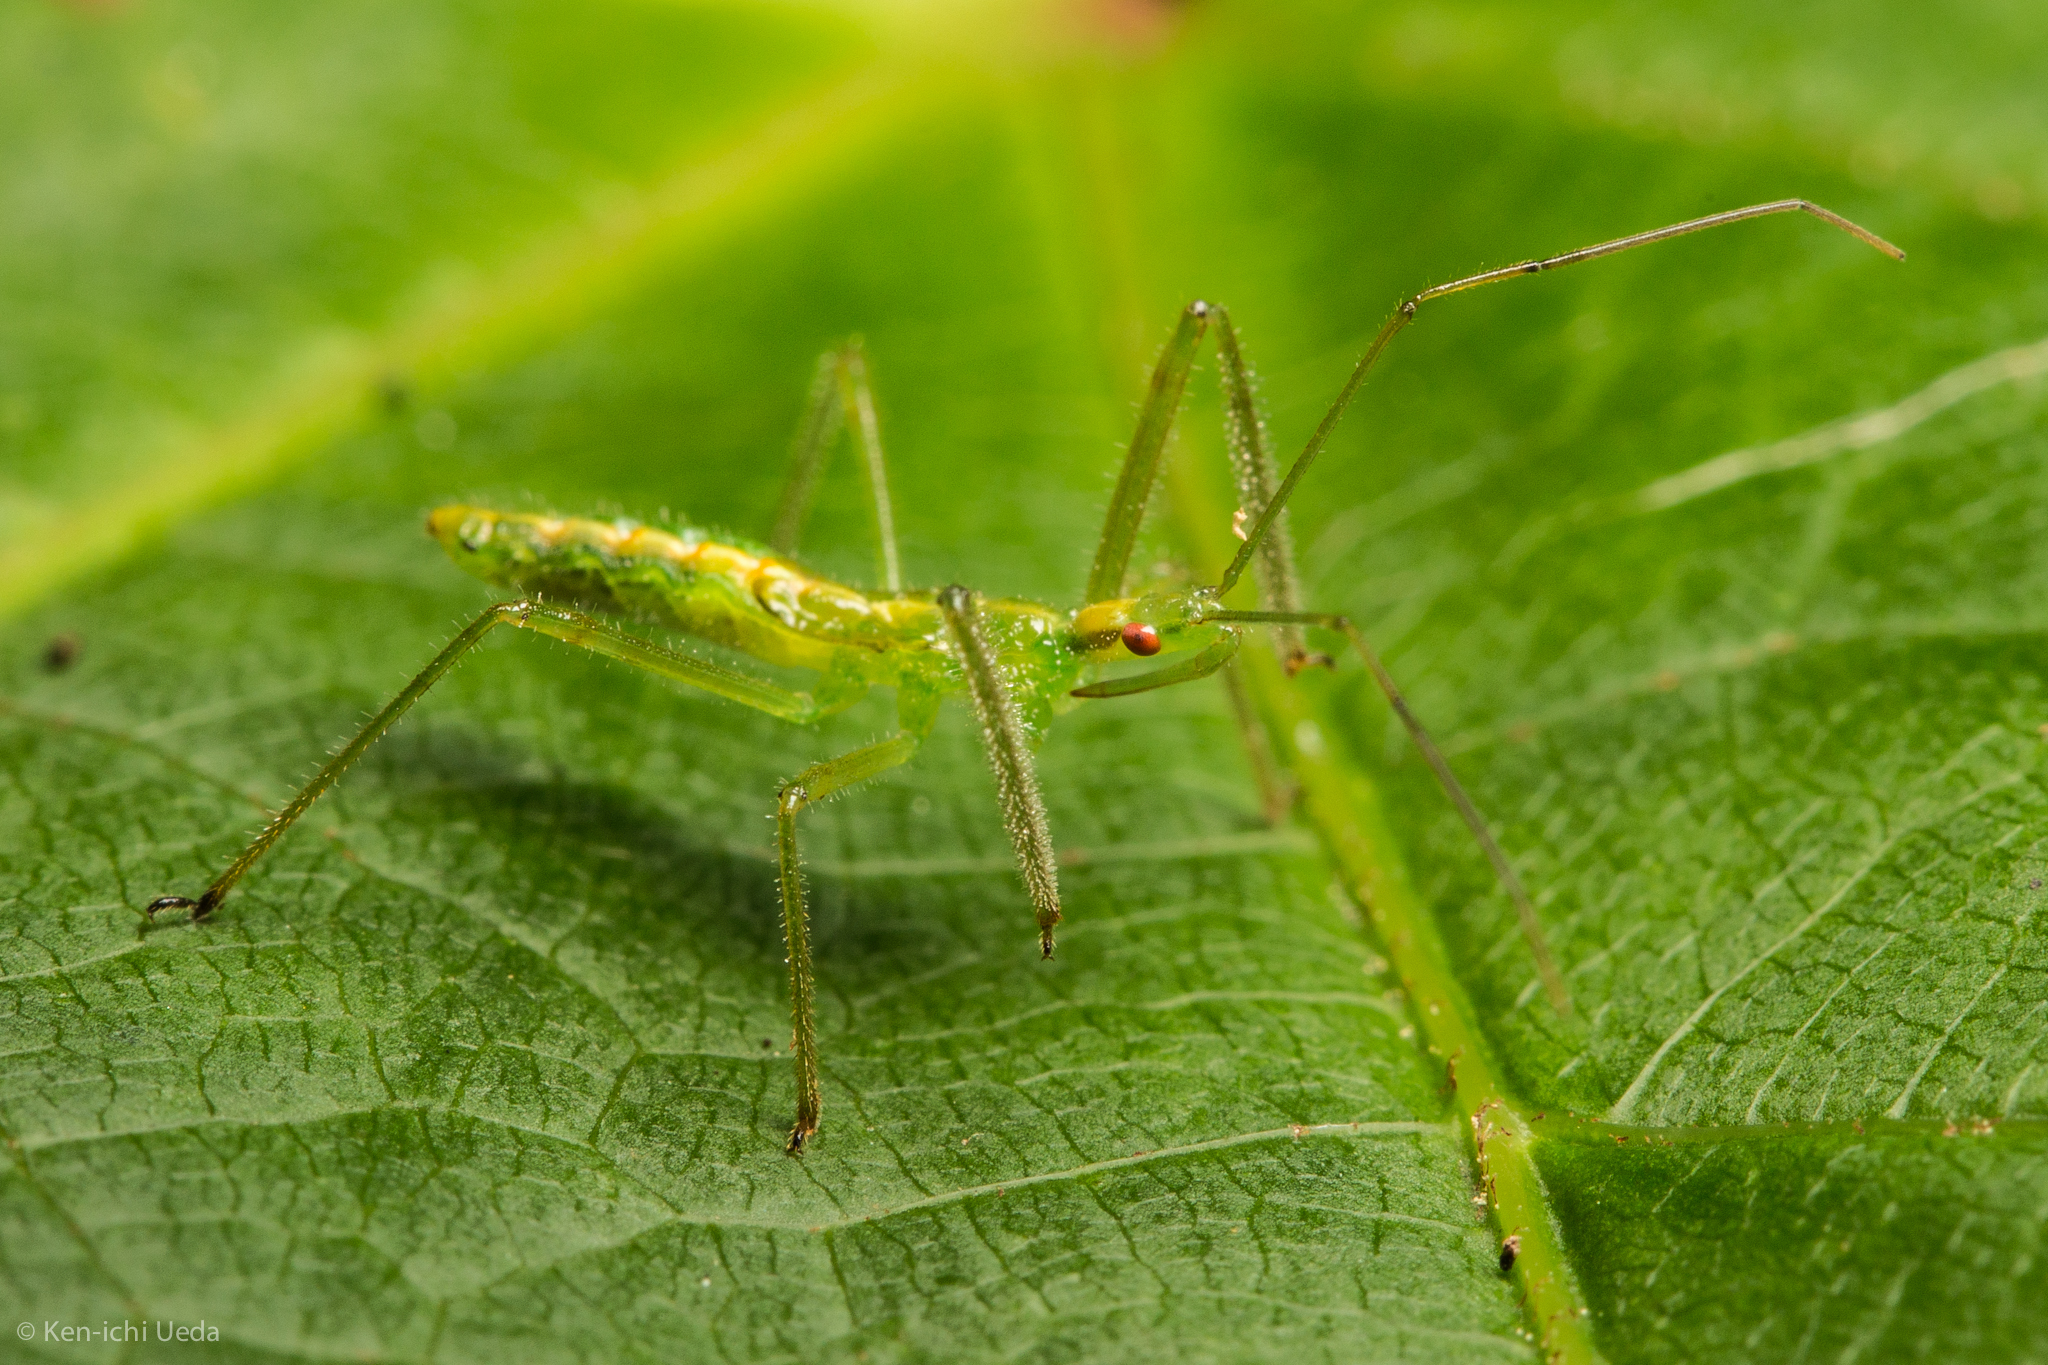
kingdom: Animalia
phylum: Arthropoda
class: Insecta
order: Hemiptera
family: Reduviidae
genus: Zelus
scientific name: Zelus luridus
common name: Pale green assassin bug
